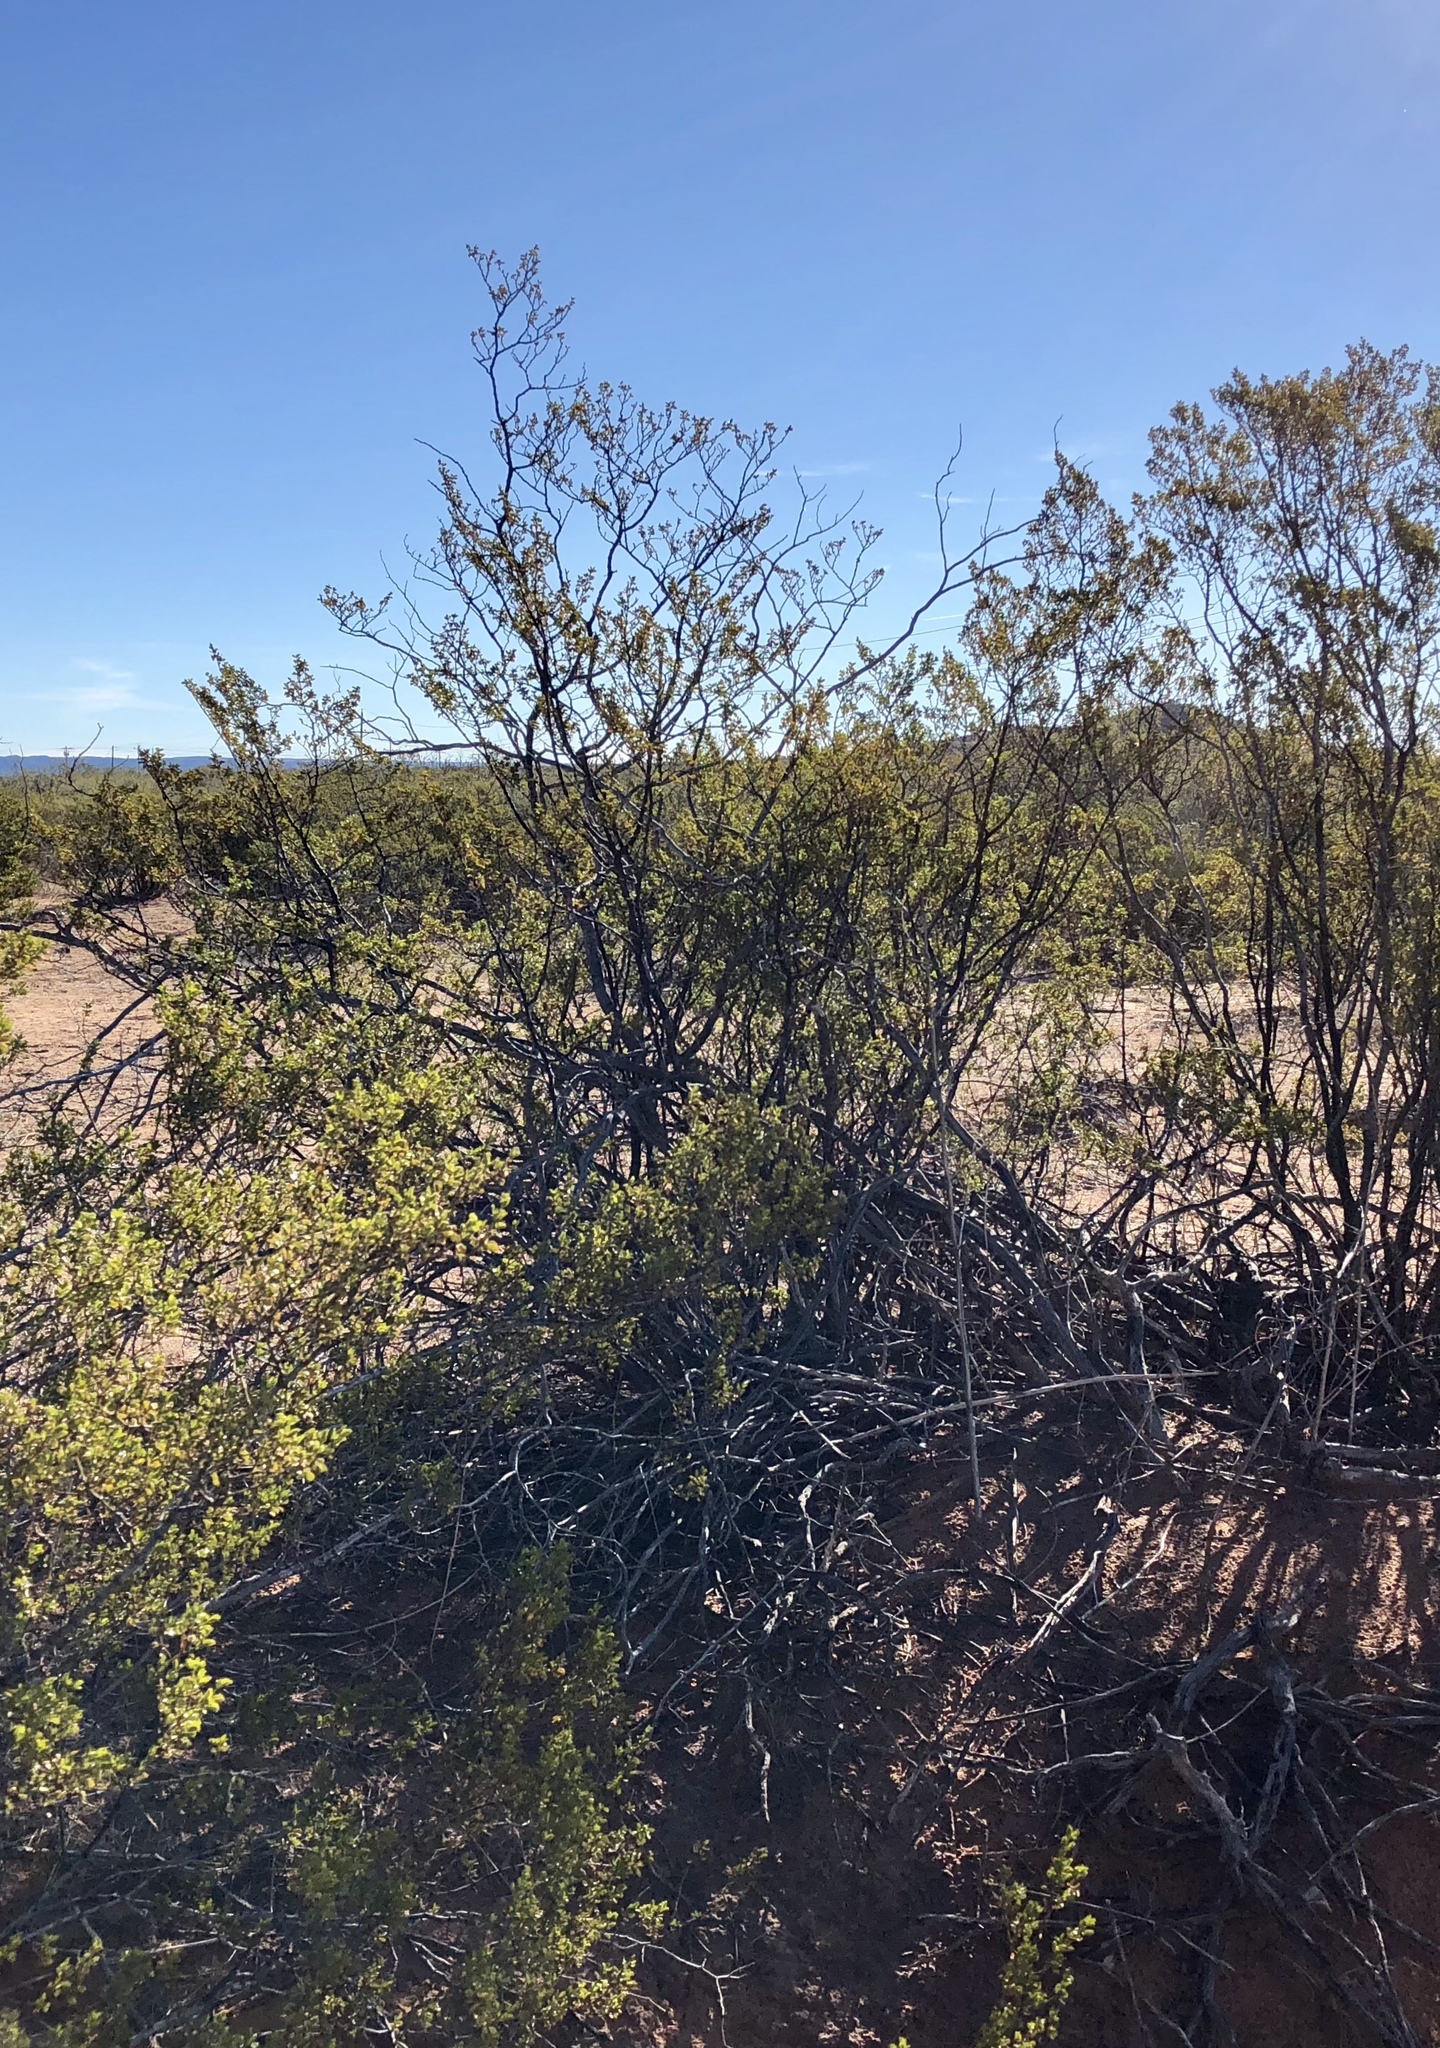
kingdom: Plantae
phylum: Tracheophyta
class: Magnoliopsida
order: Zygophyllales
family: Zygophyllaceae
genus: Larrea
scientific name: Larrea tridentata
